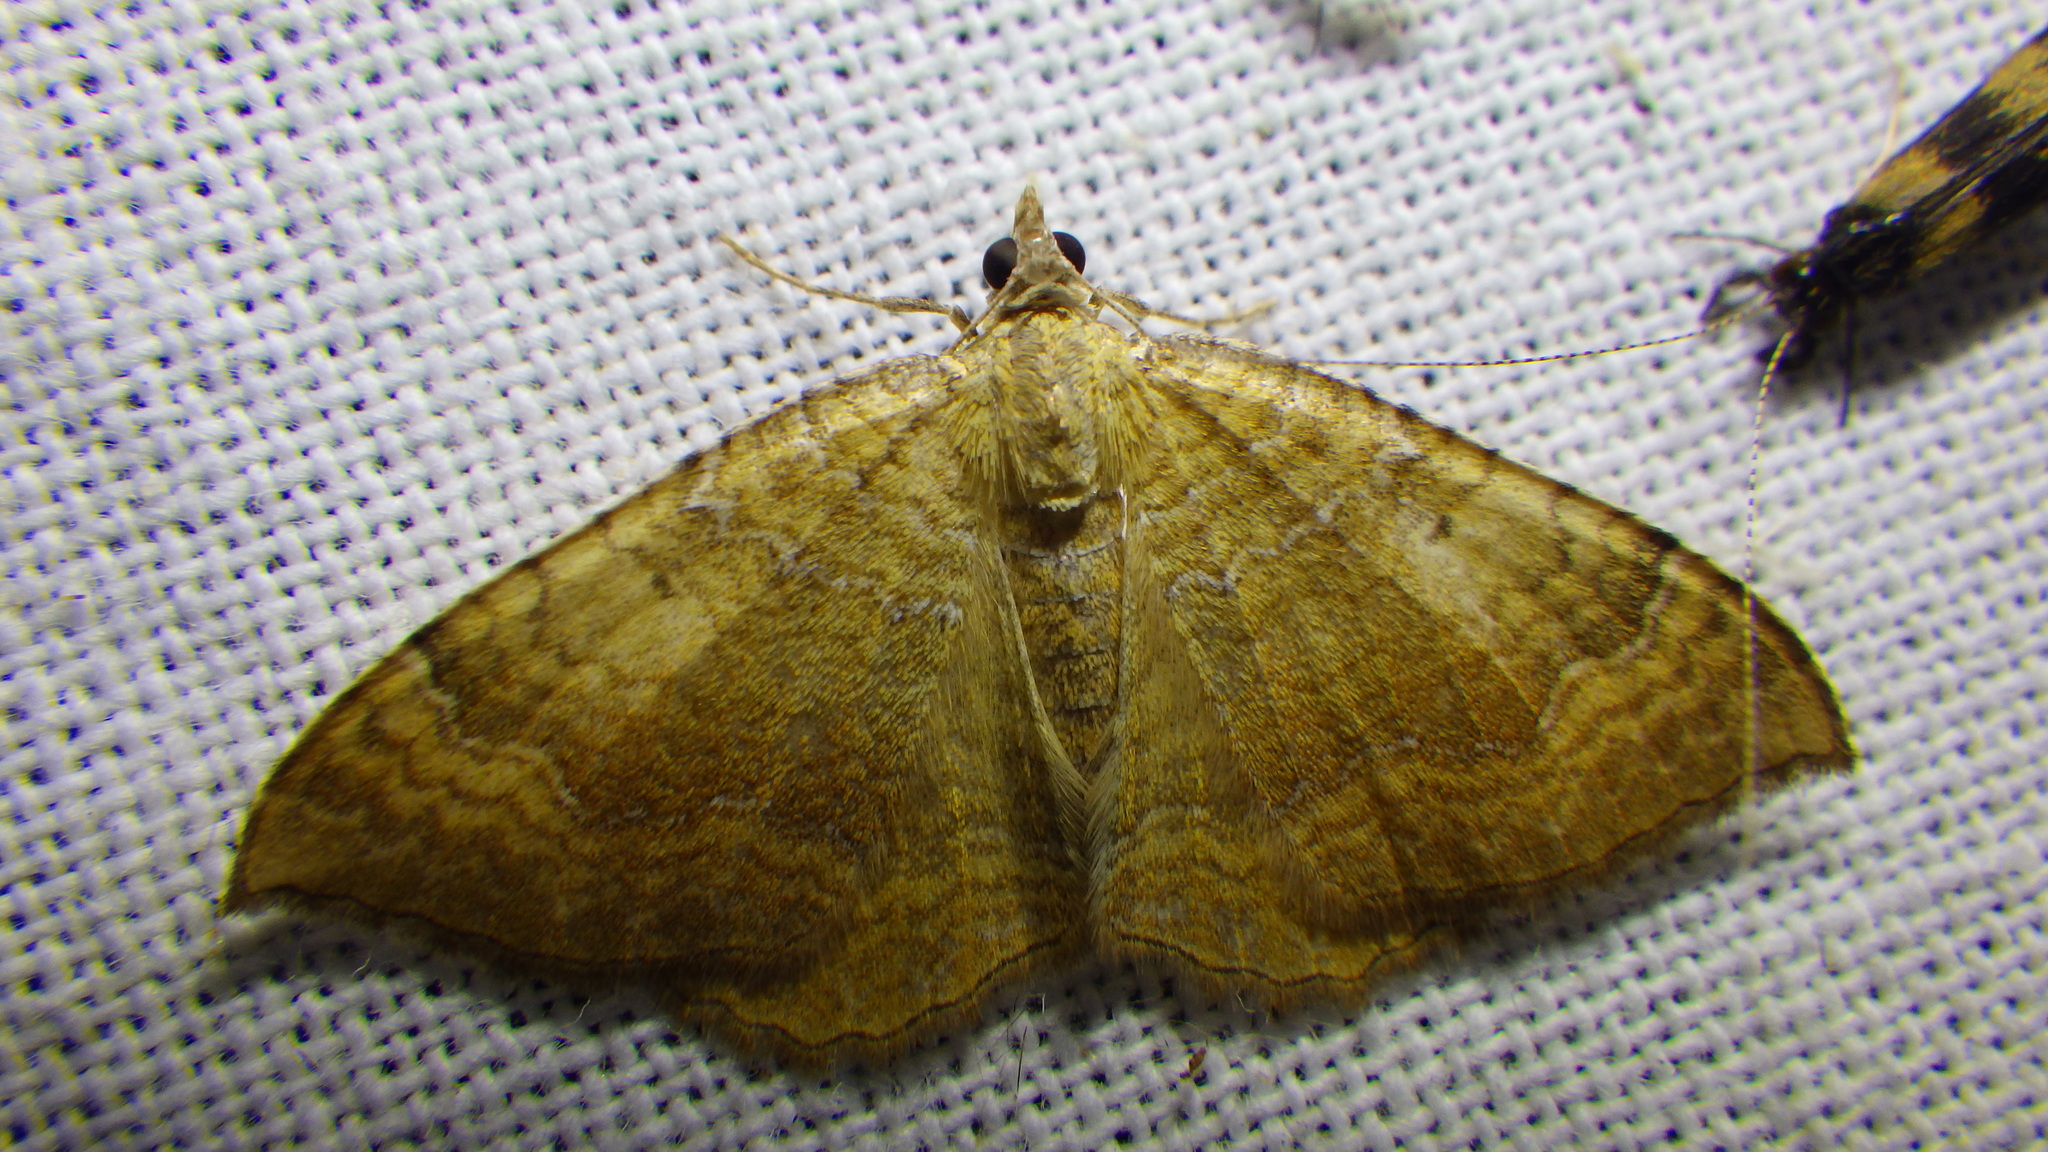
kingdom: Animalia
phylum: Arthropoda
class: Insecta
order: Lepidoptera
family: Geometridae
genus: Camptogramma
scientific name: Camptogramma bilineata
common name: Yellow shell
